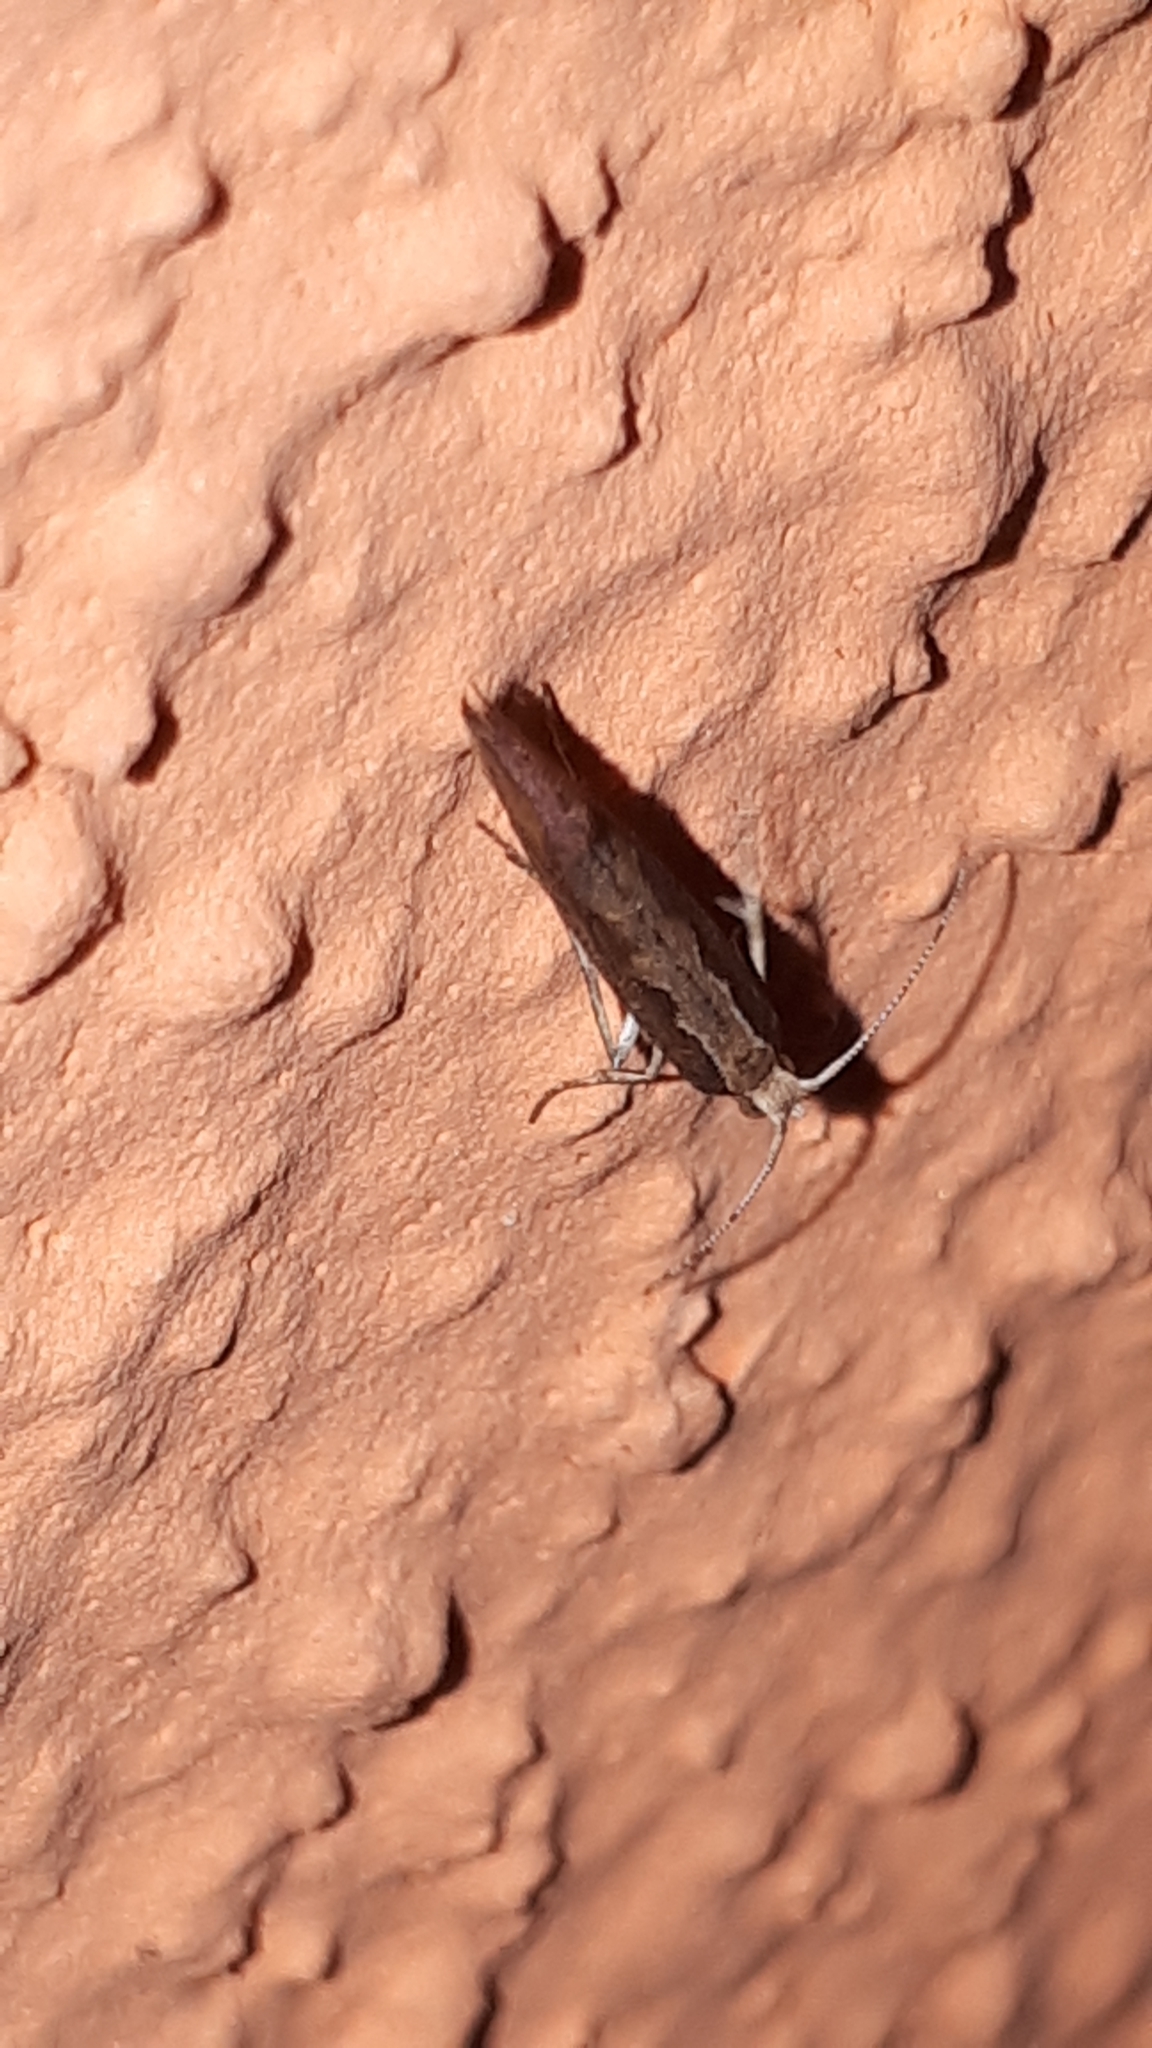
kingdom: Animalia
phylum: Arthropoda
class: Insecta
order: Lepidoptera
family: Plutellidae
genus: Plutella
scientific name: Plutella xylostella
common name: Diamond-back moth
